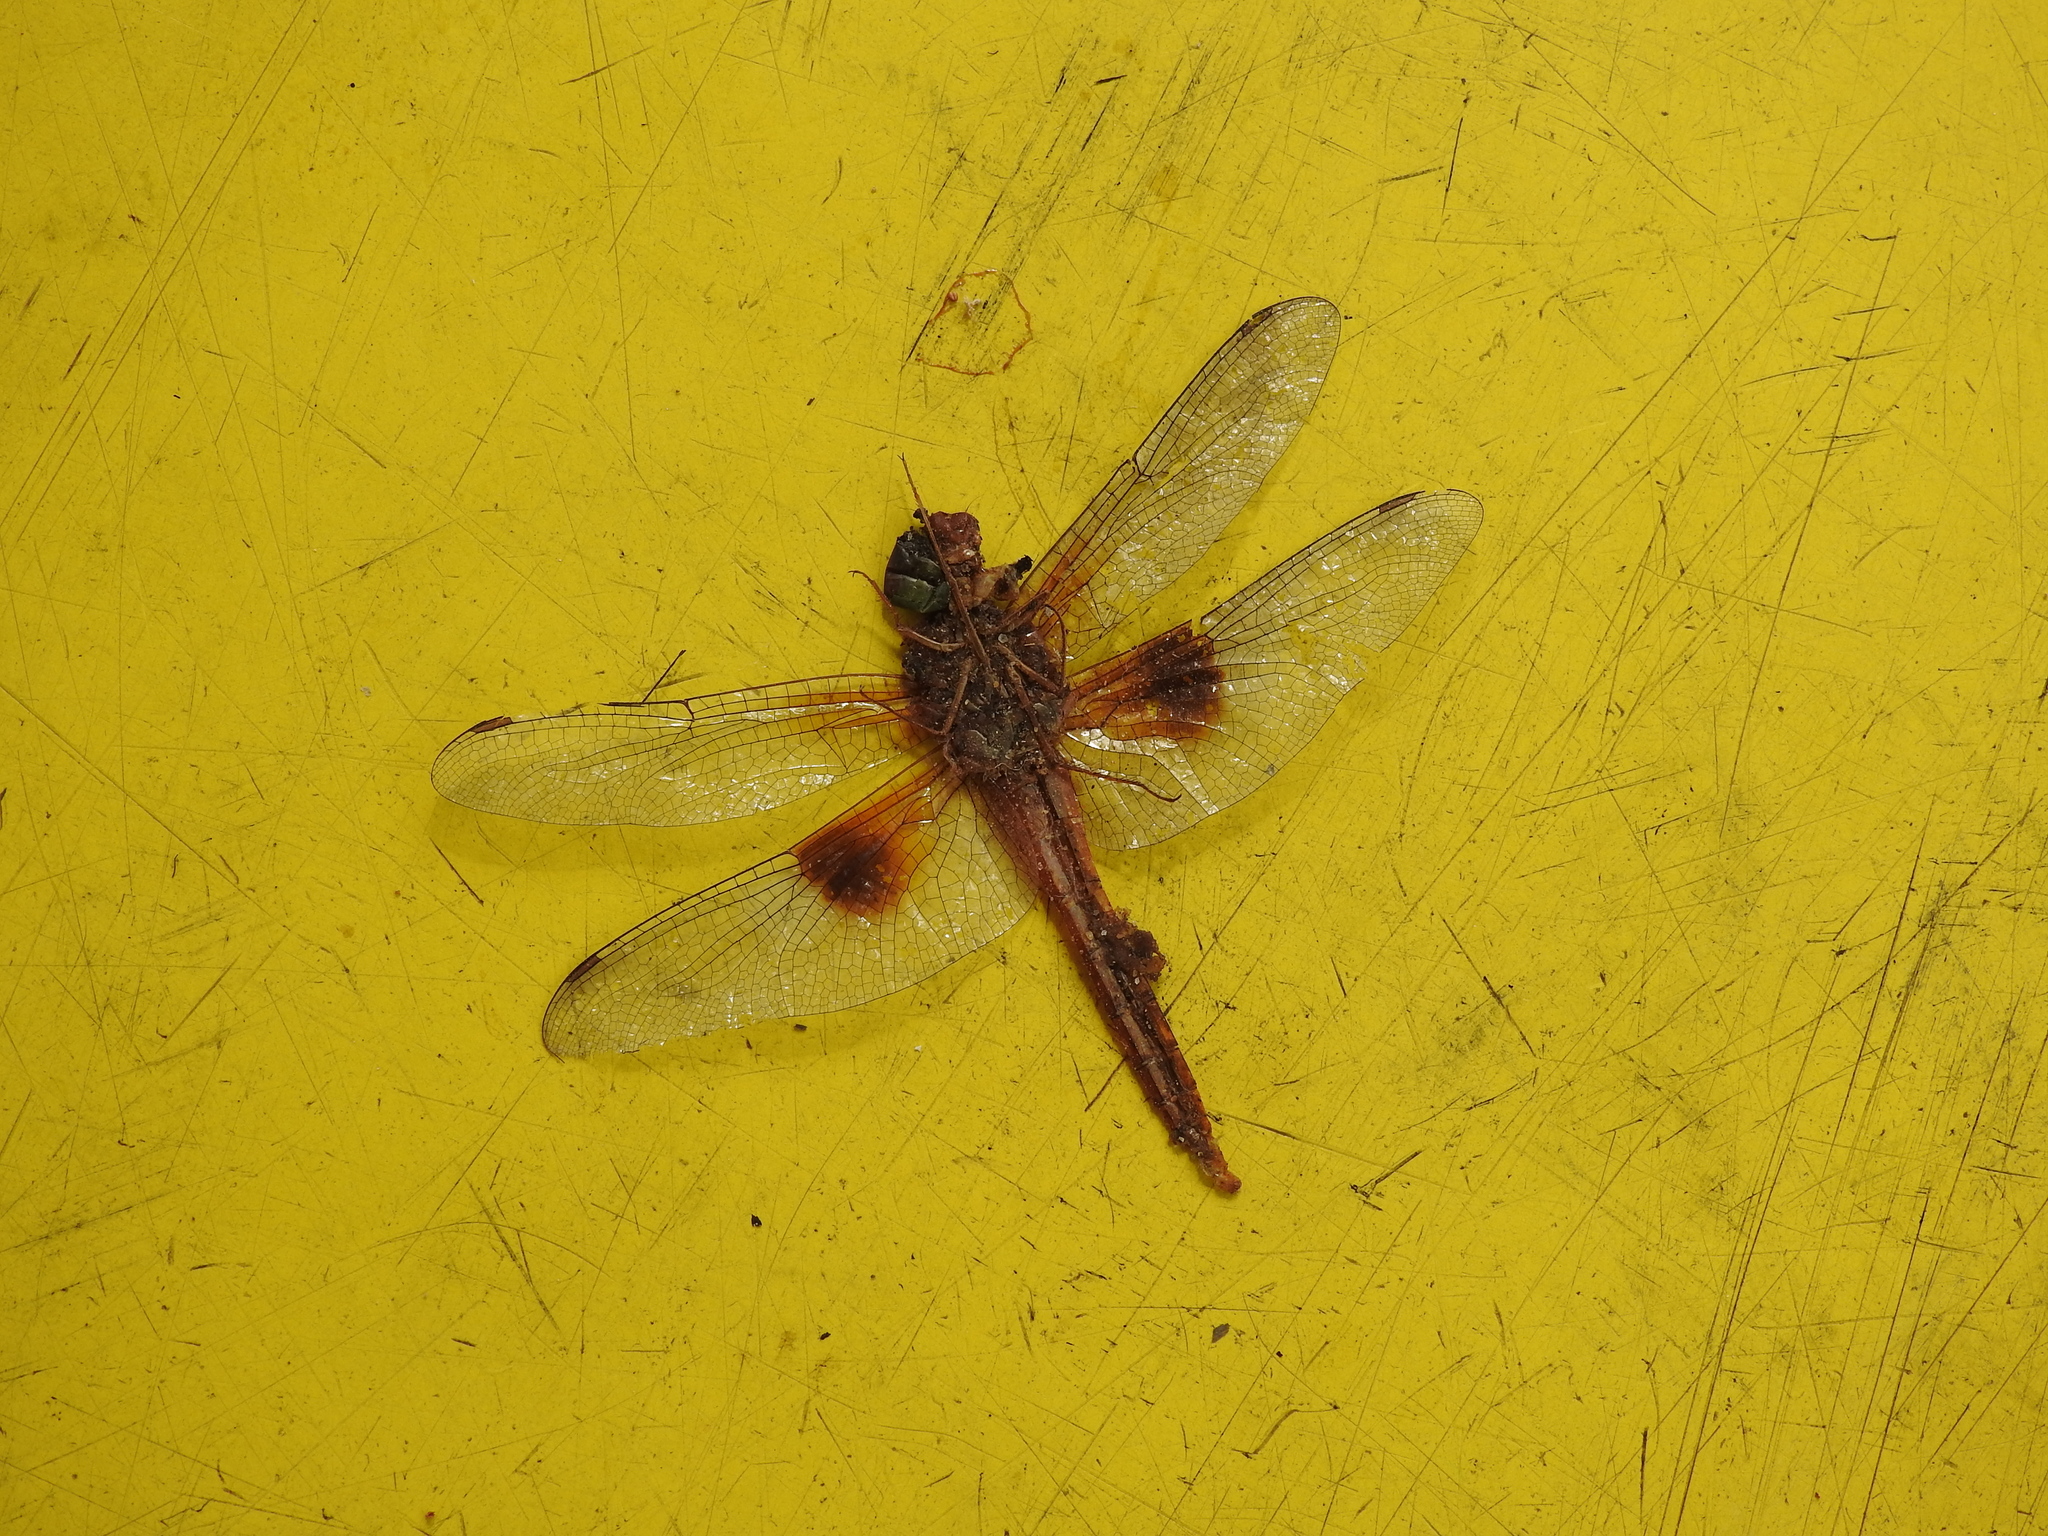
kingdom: Animalia
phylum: Arthropoda
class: Insecta
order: Odonata
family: Libellulidae
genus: Tholymis
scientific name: Tholymis tillarga
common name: Coral-tailed cloud wing
